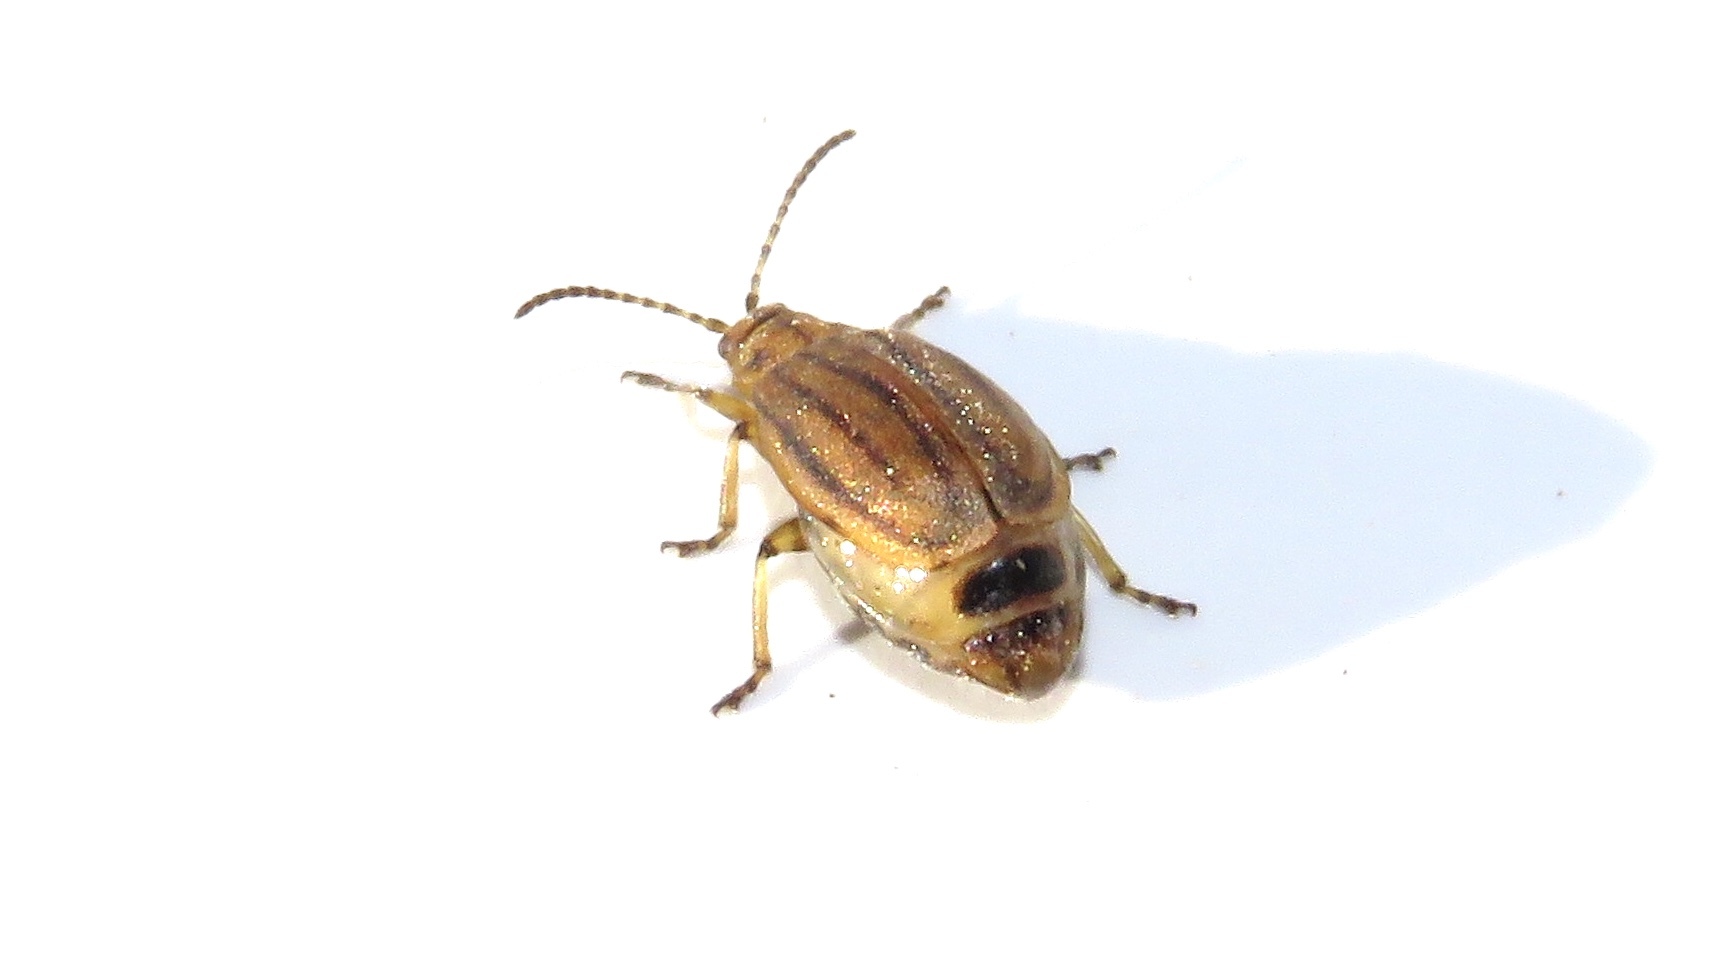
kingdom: Animalia
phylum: Arthropoda
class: Insecta
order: Coleoptera
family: Chrysomelidae
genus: Ophraella
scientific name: Ophraella conferta
